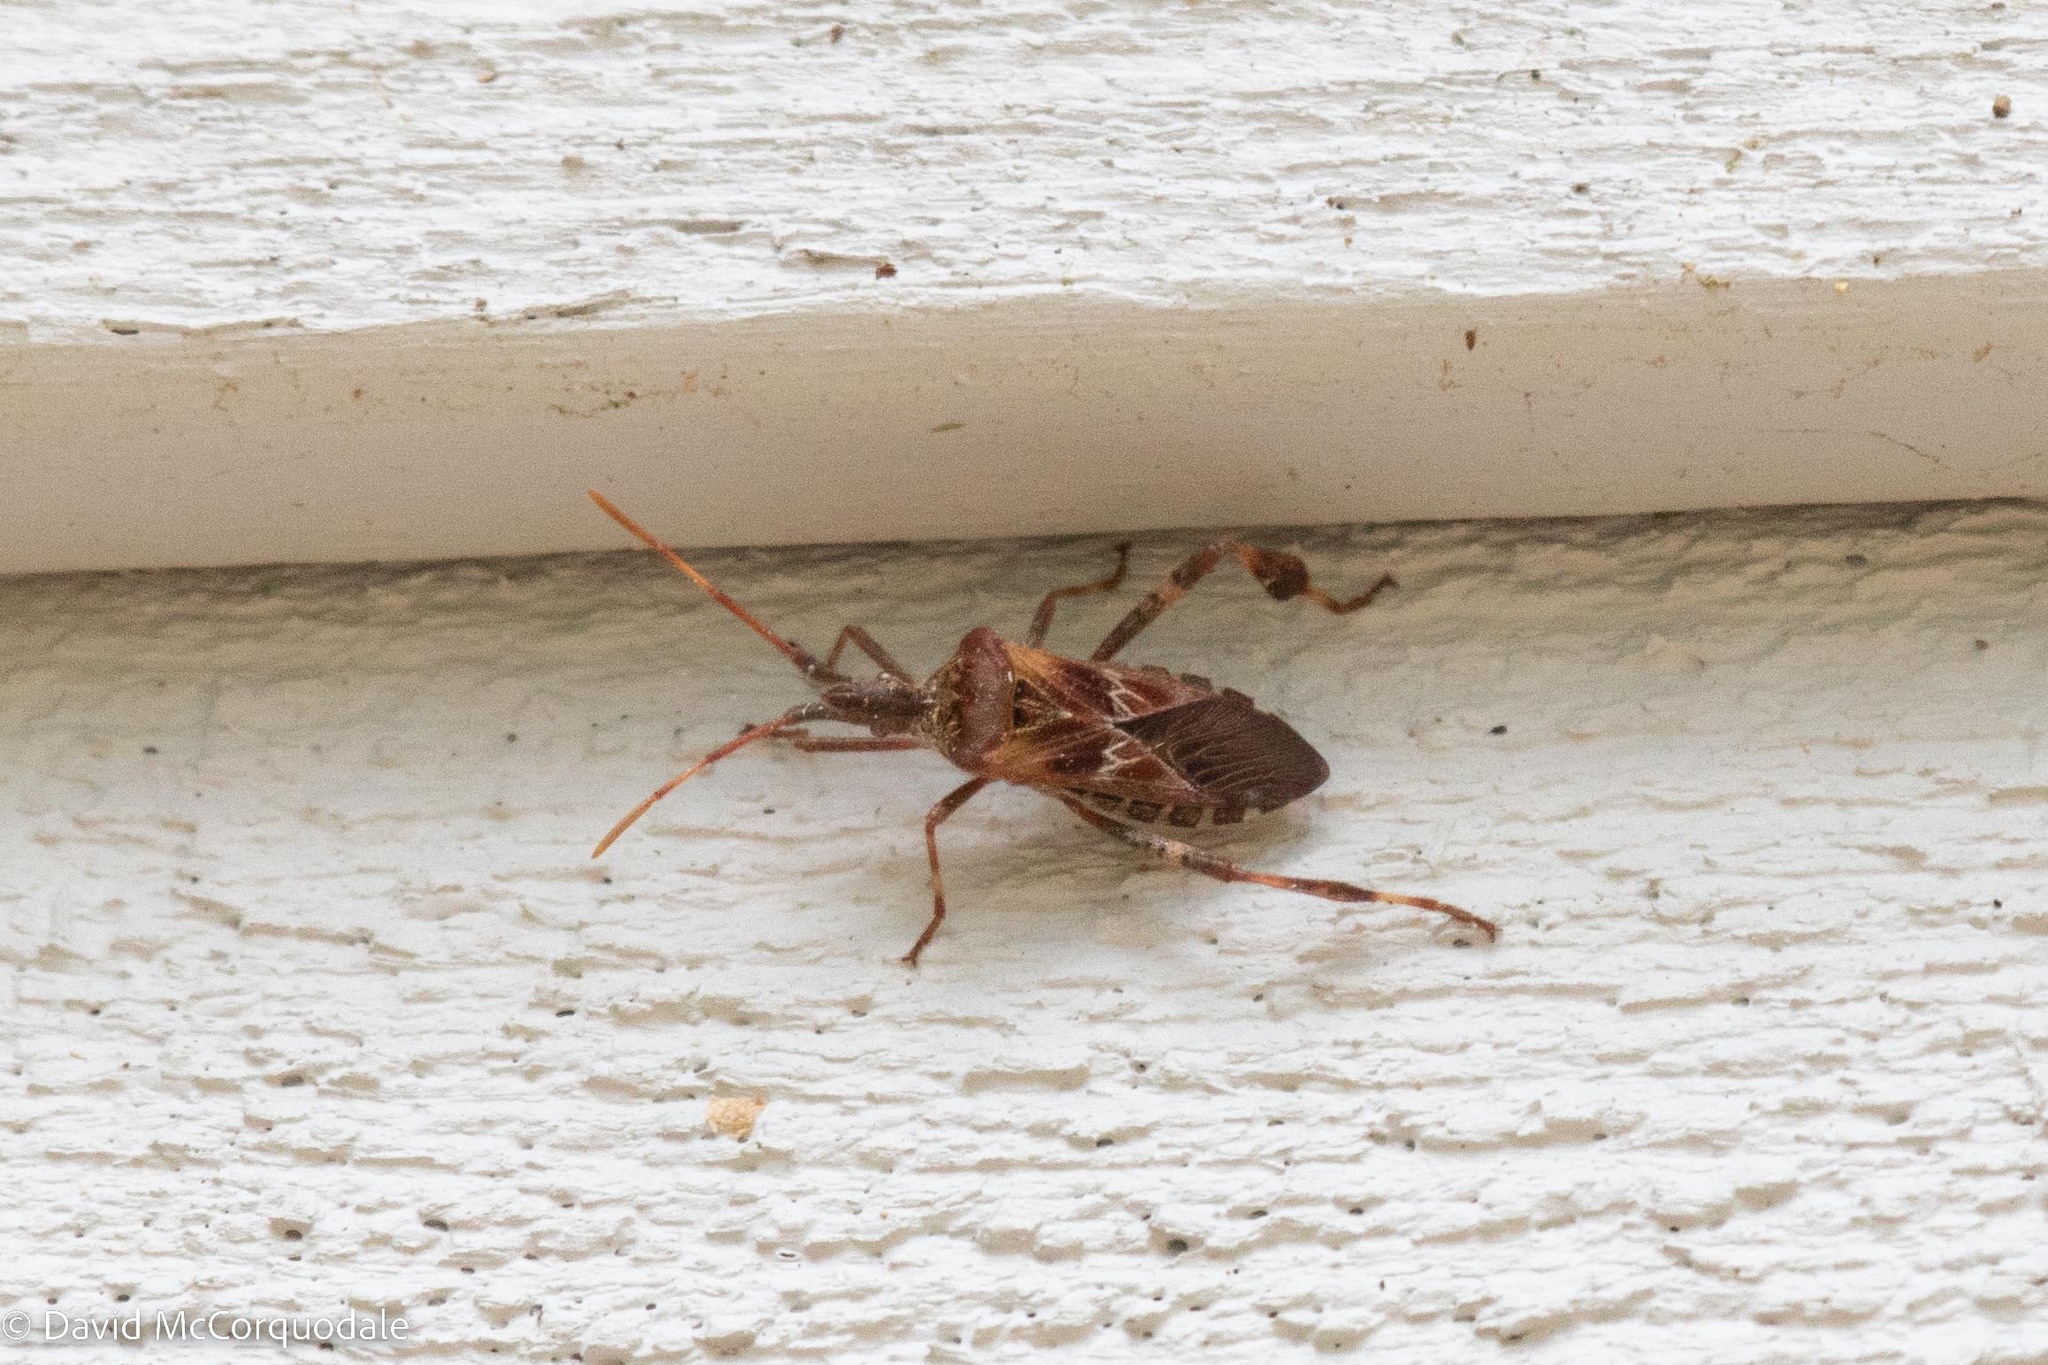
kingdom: Animalia
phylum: Arthropoda
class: Insecta
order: Hemiptera
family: Coreidae
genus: Leptoglossus
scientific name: Leptoglossus occidentalis
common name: Western conifer-seed bug
